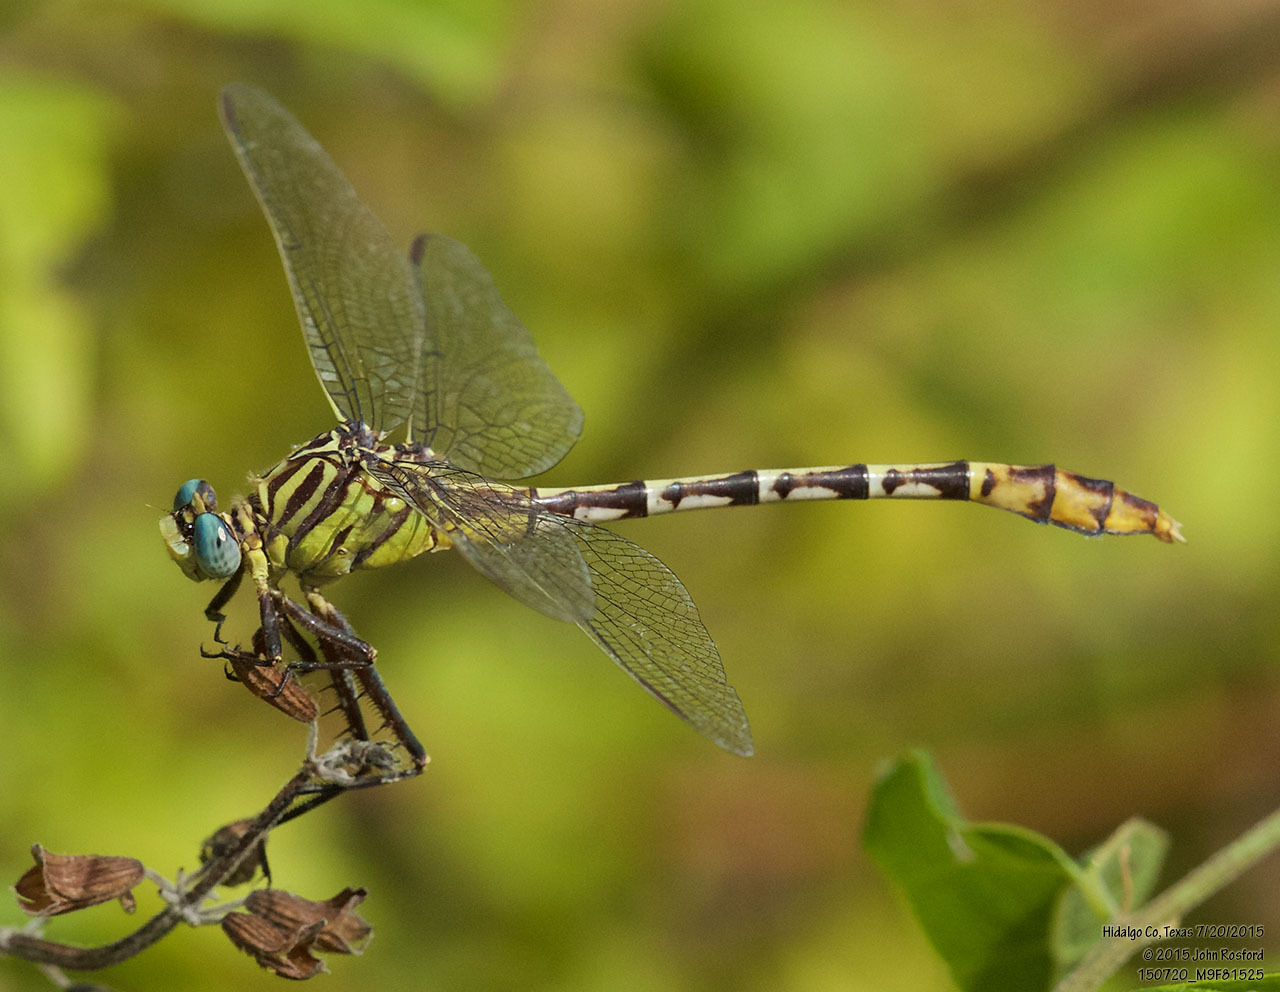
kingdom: Animalia
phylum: Arthropoda
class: Insecta
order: Odonata
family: Gomphidae
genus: Dromogomphus
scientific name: Dromogomphus spoliatus
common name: Flag-tailed spinyleg
